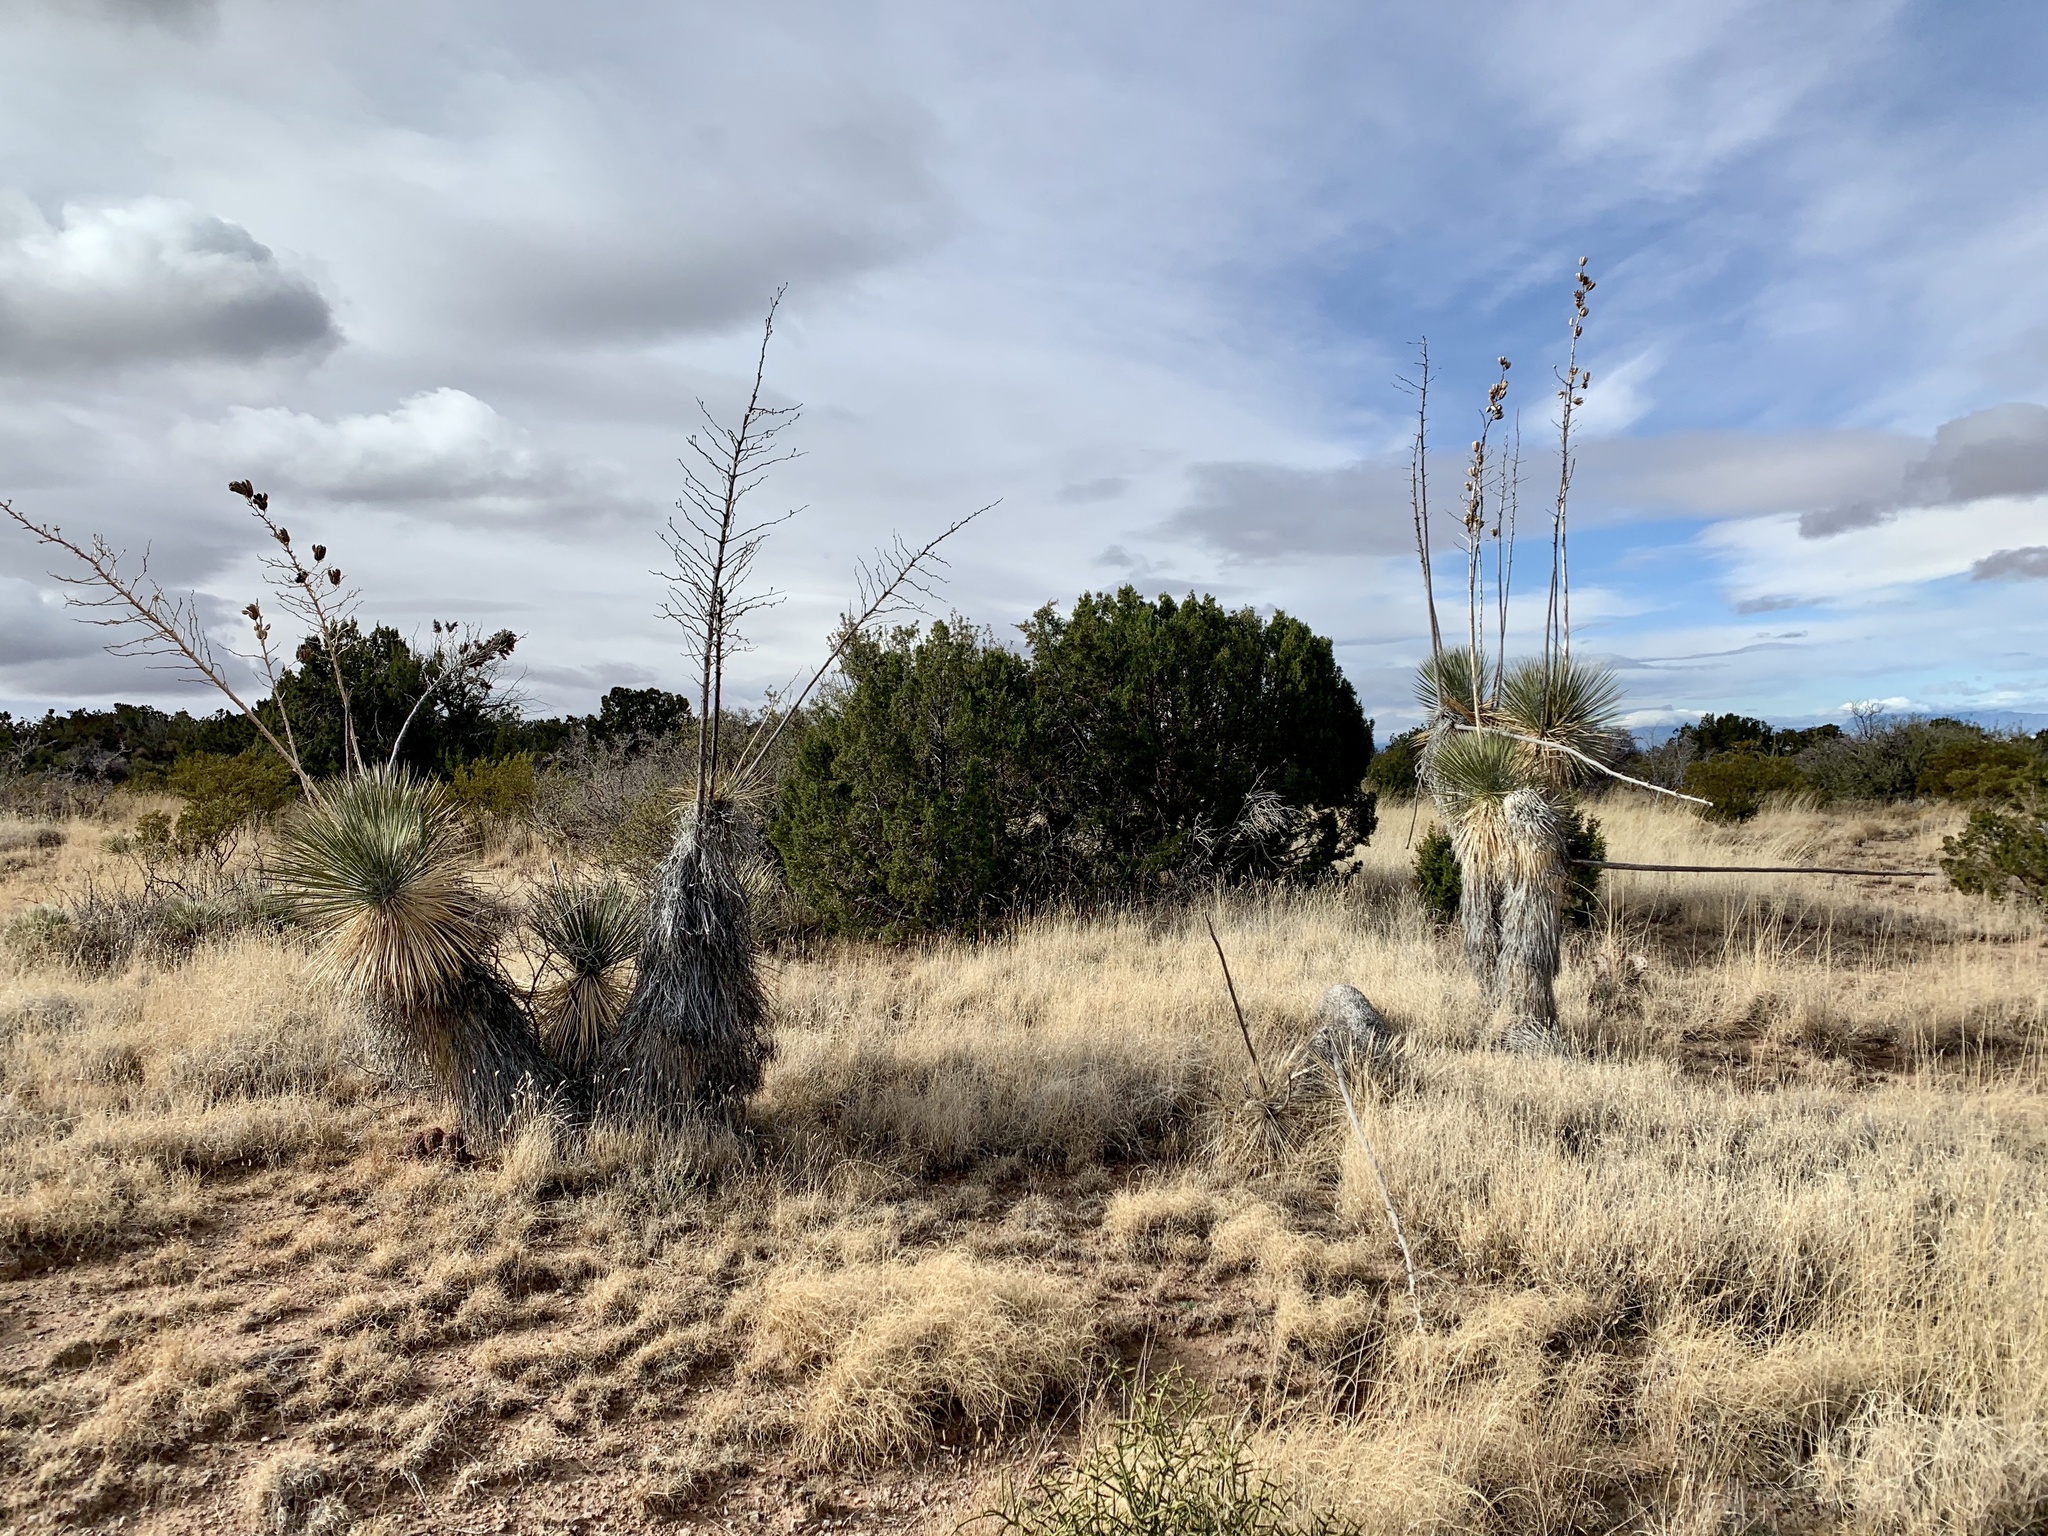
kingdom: Plantae
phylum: Tracheophyta
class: Liliopsida
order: Asparagales
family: Asparagaceae
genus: Yucca
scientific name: Yucca elata
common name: Palmella
